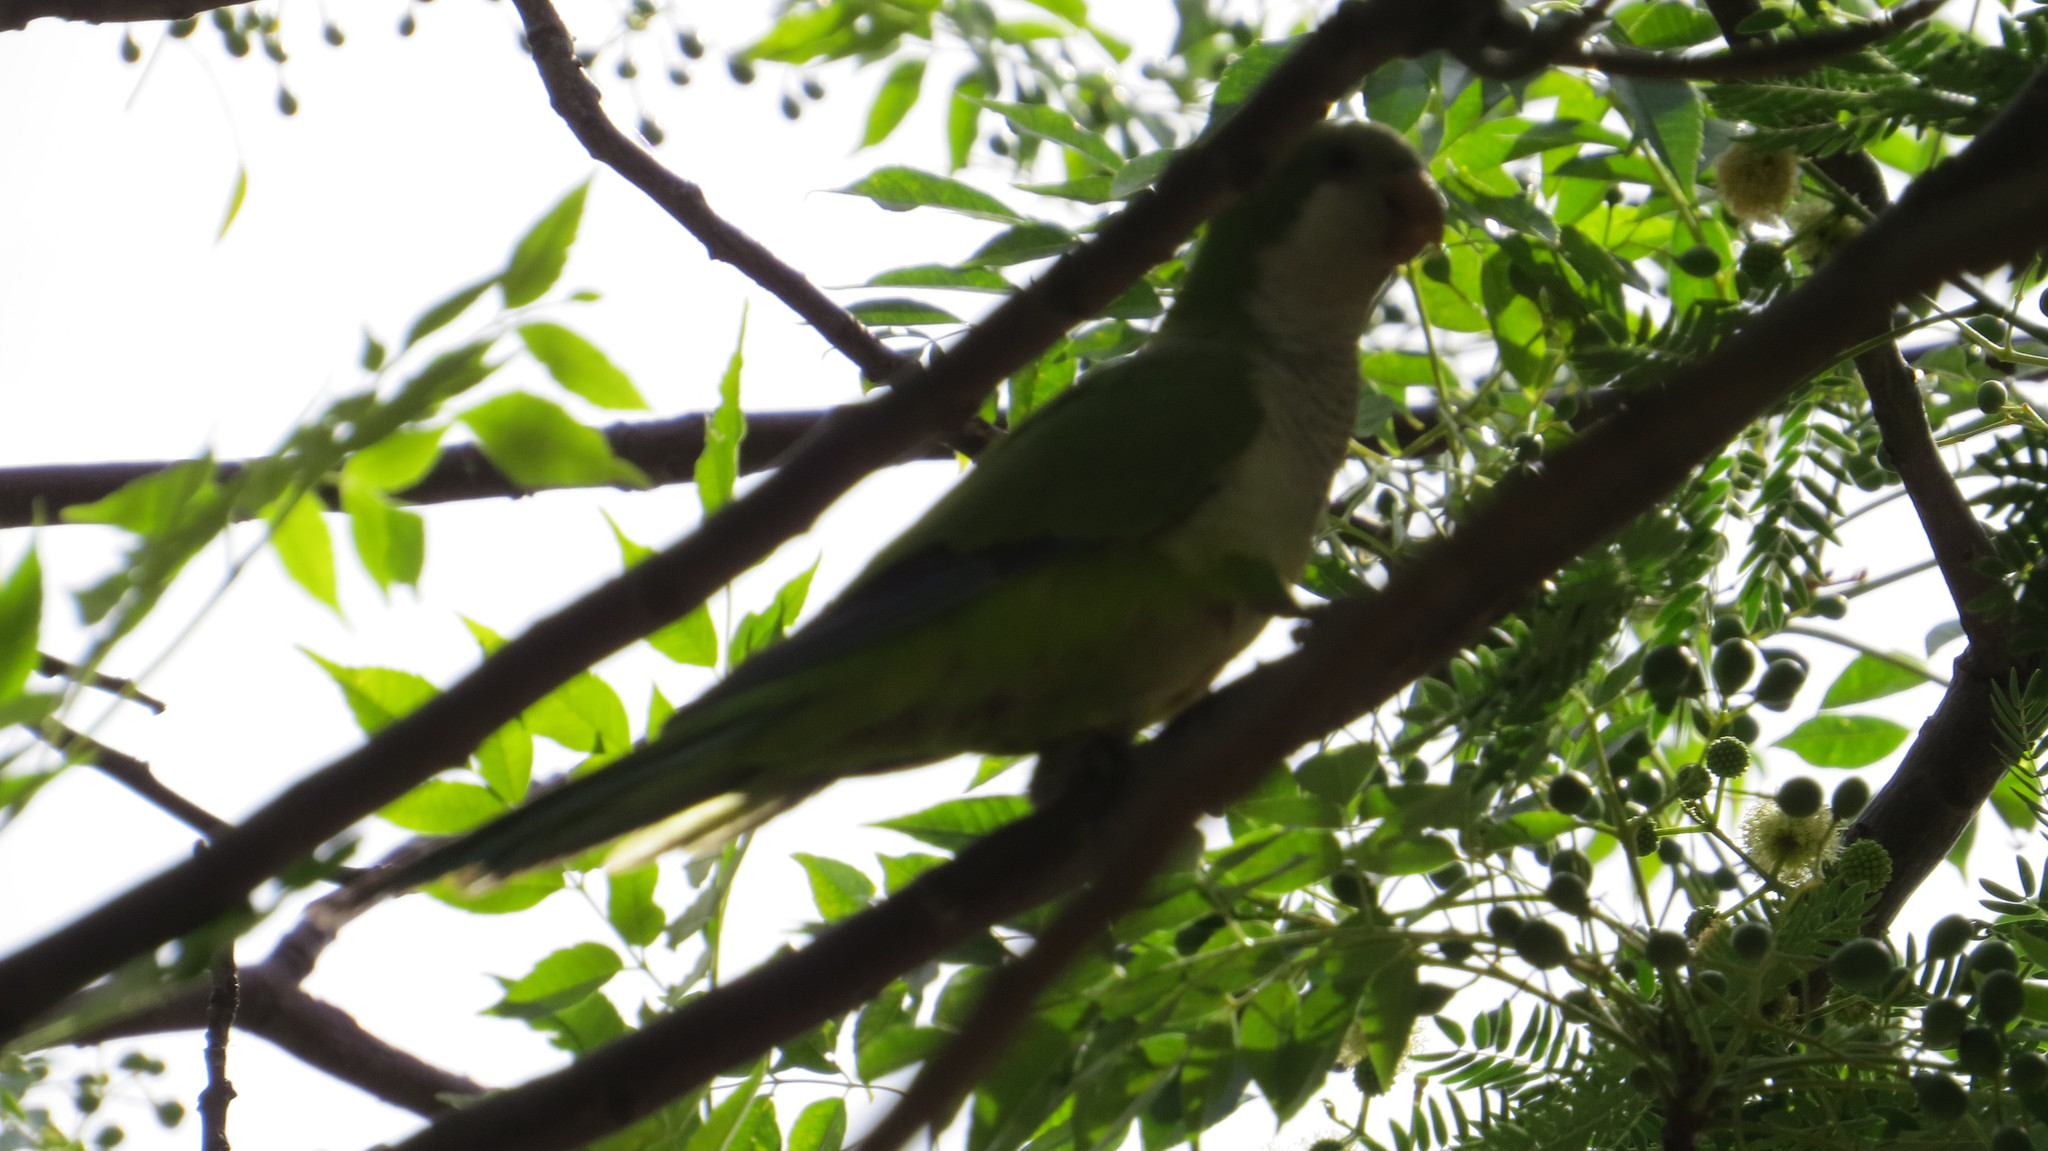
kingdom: Animalia
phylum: Chordata
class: Aves
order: Psittaciformes
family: Psittacidae
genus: Myiopsitta
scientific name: Myiopsitta monachus
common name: Monk parakeet
